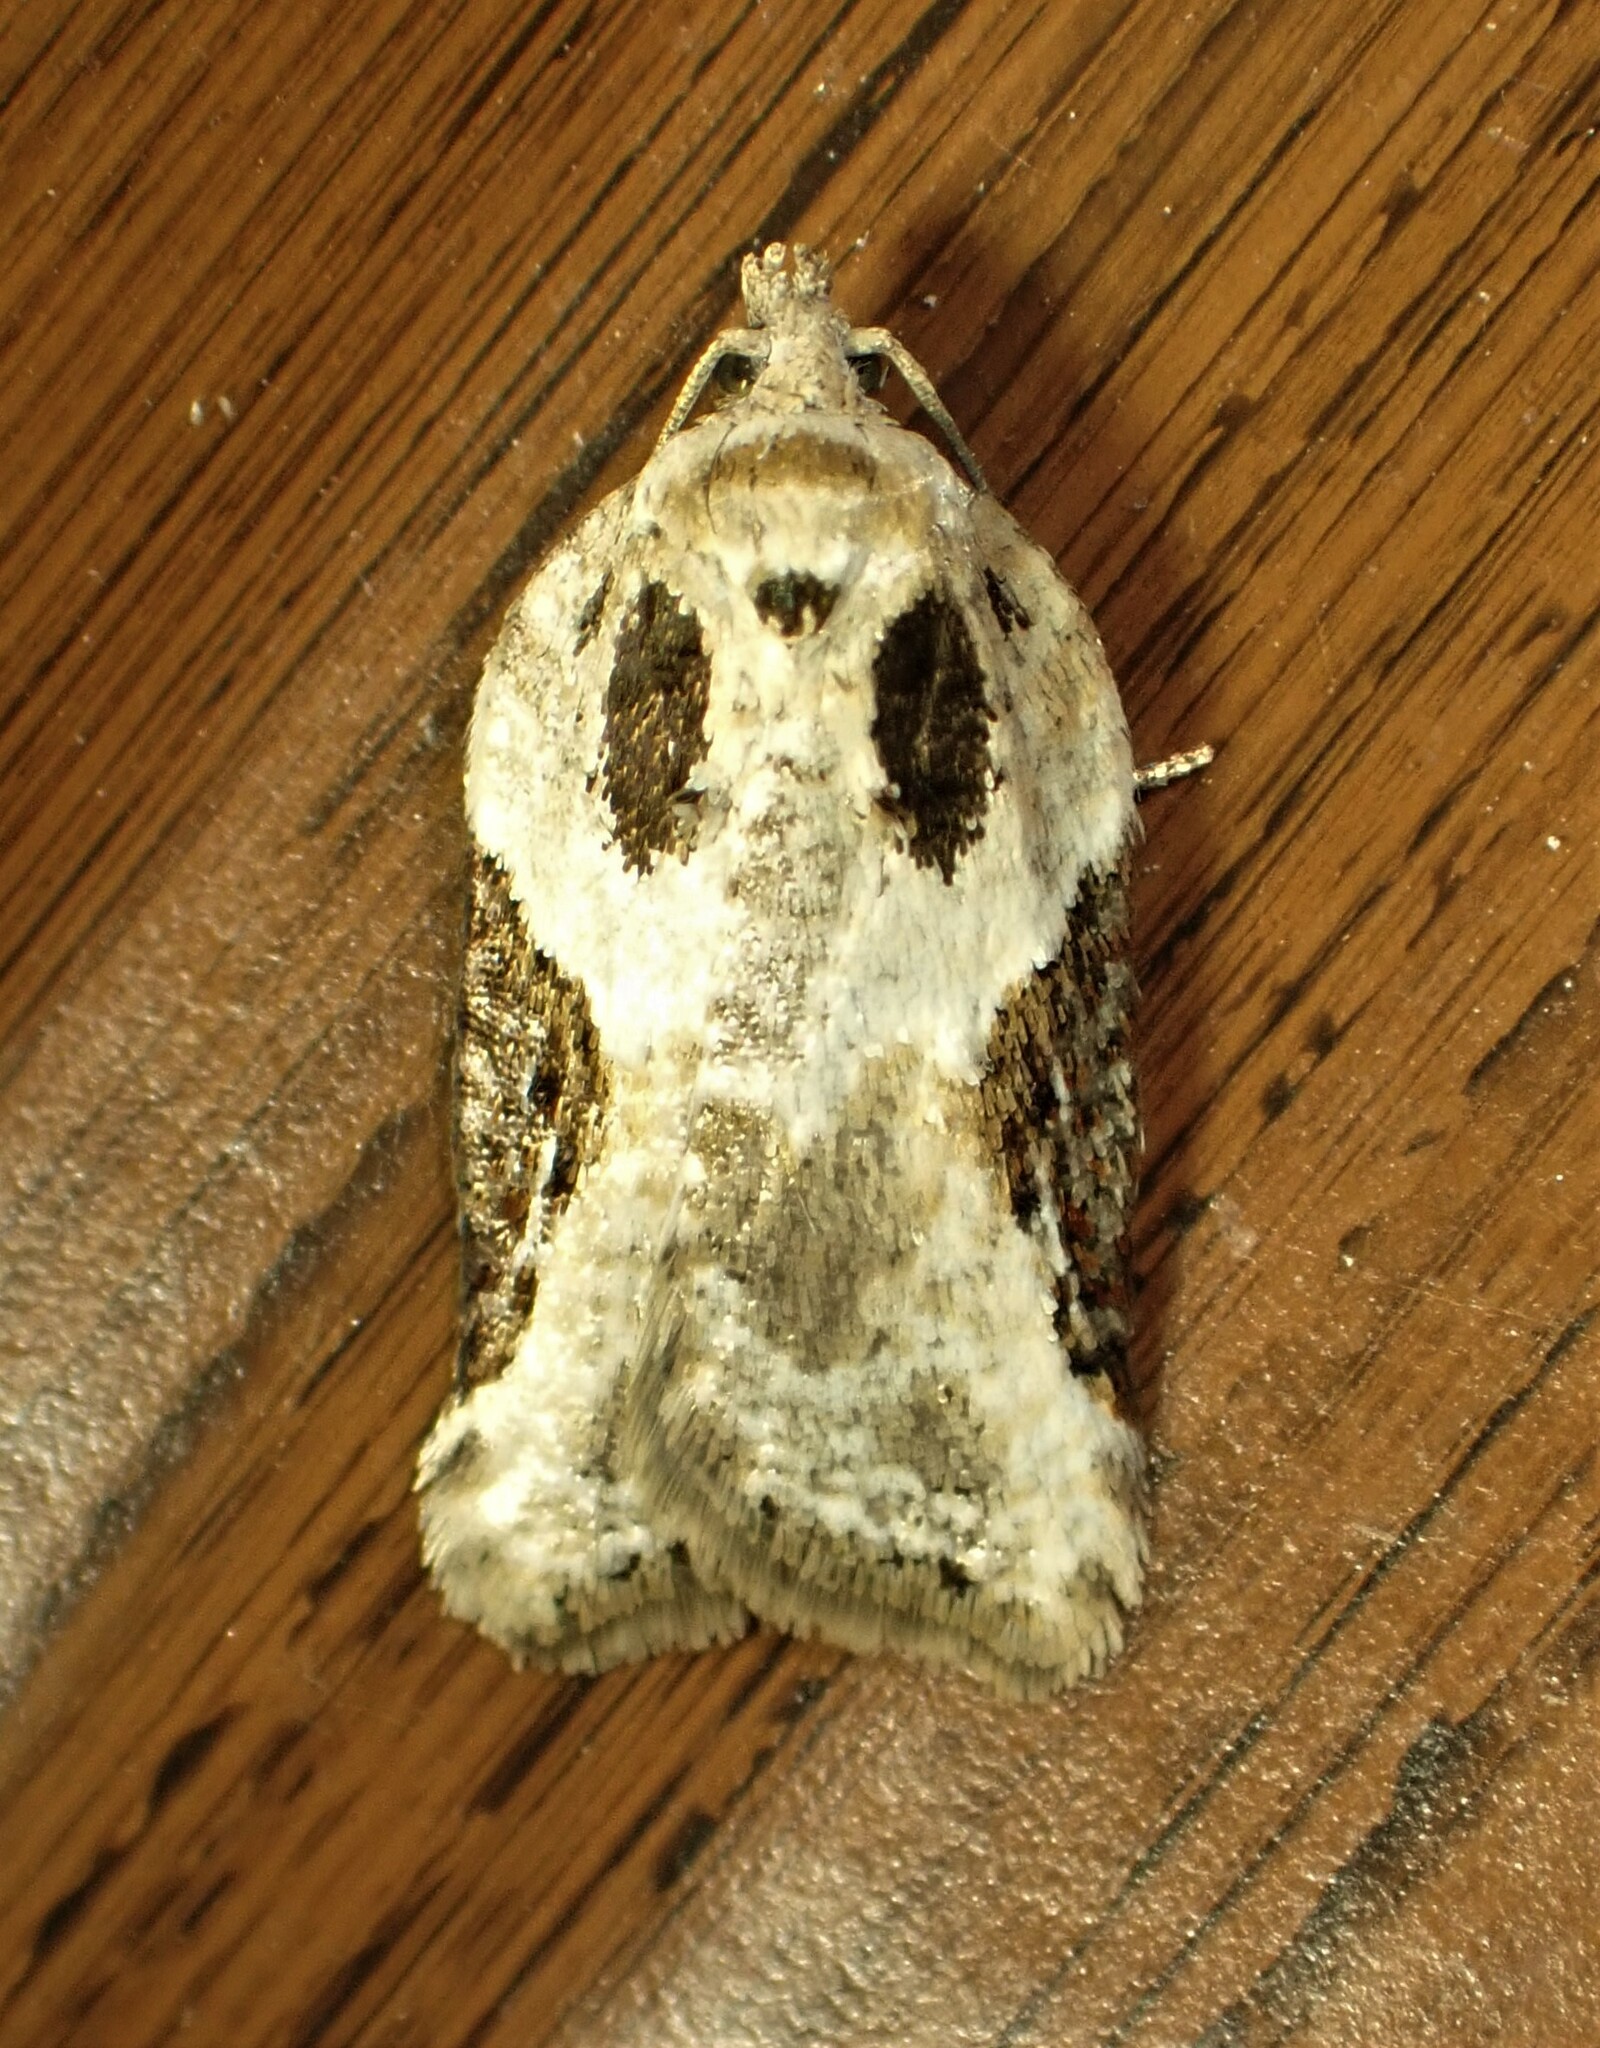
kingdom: Animalia
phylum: Arthropoda
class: Insecta
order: Lepidoptera
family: Tortricidae
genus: Acleris
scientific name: Acleris forbesana
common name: Forbes' acleris moth
